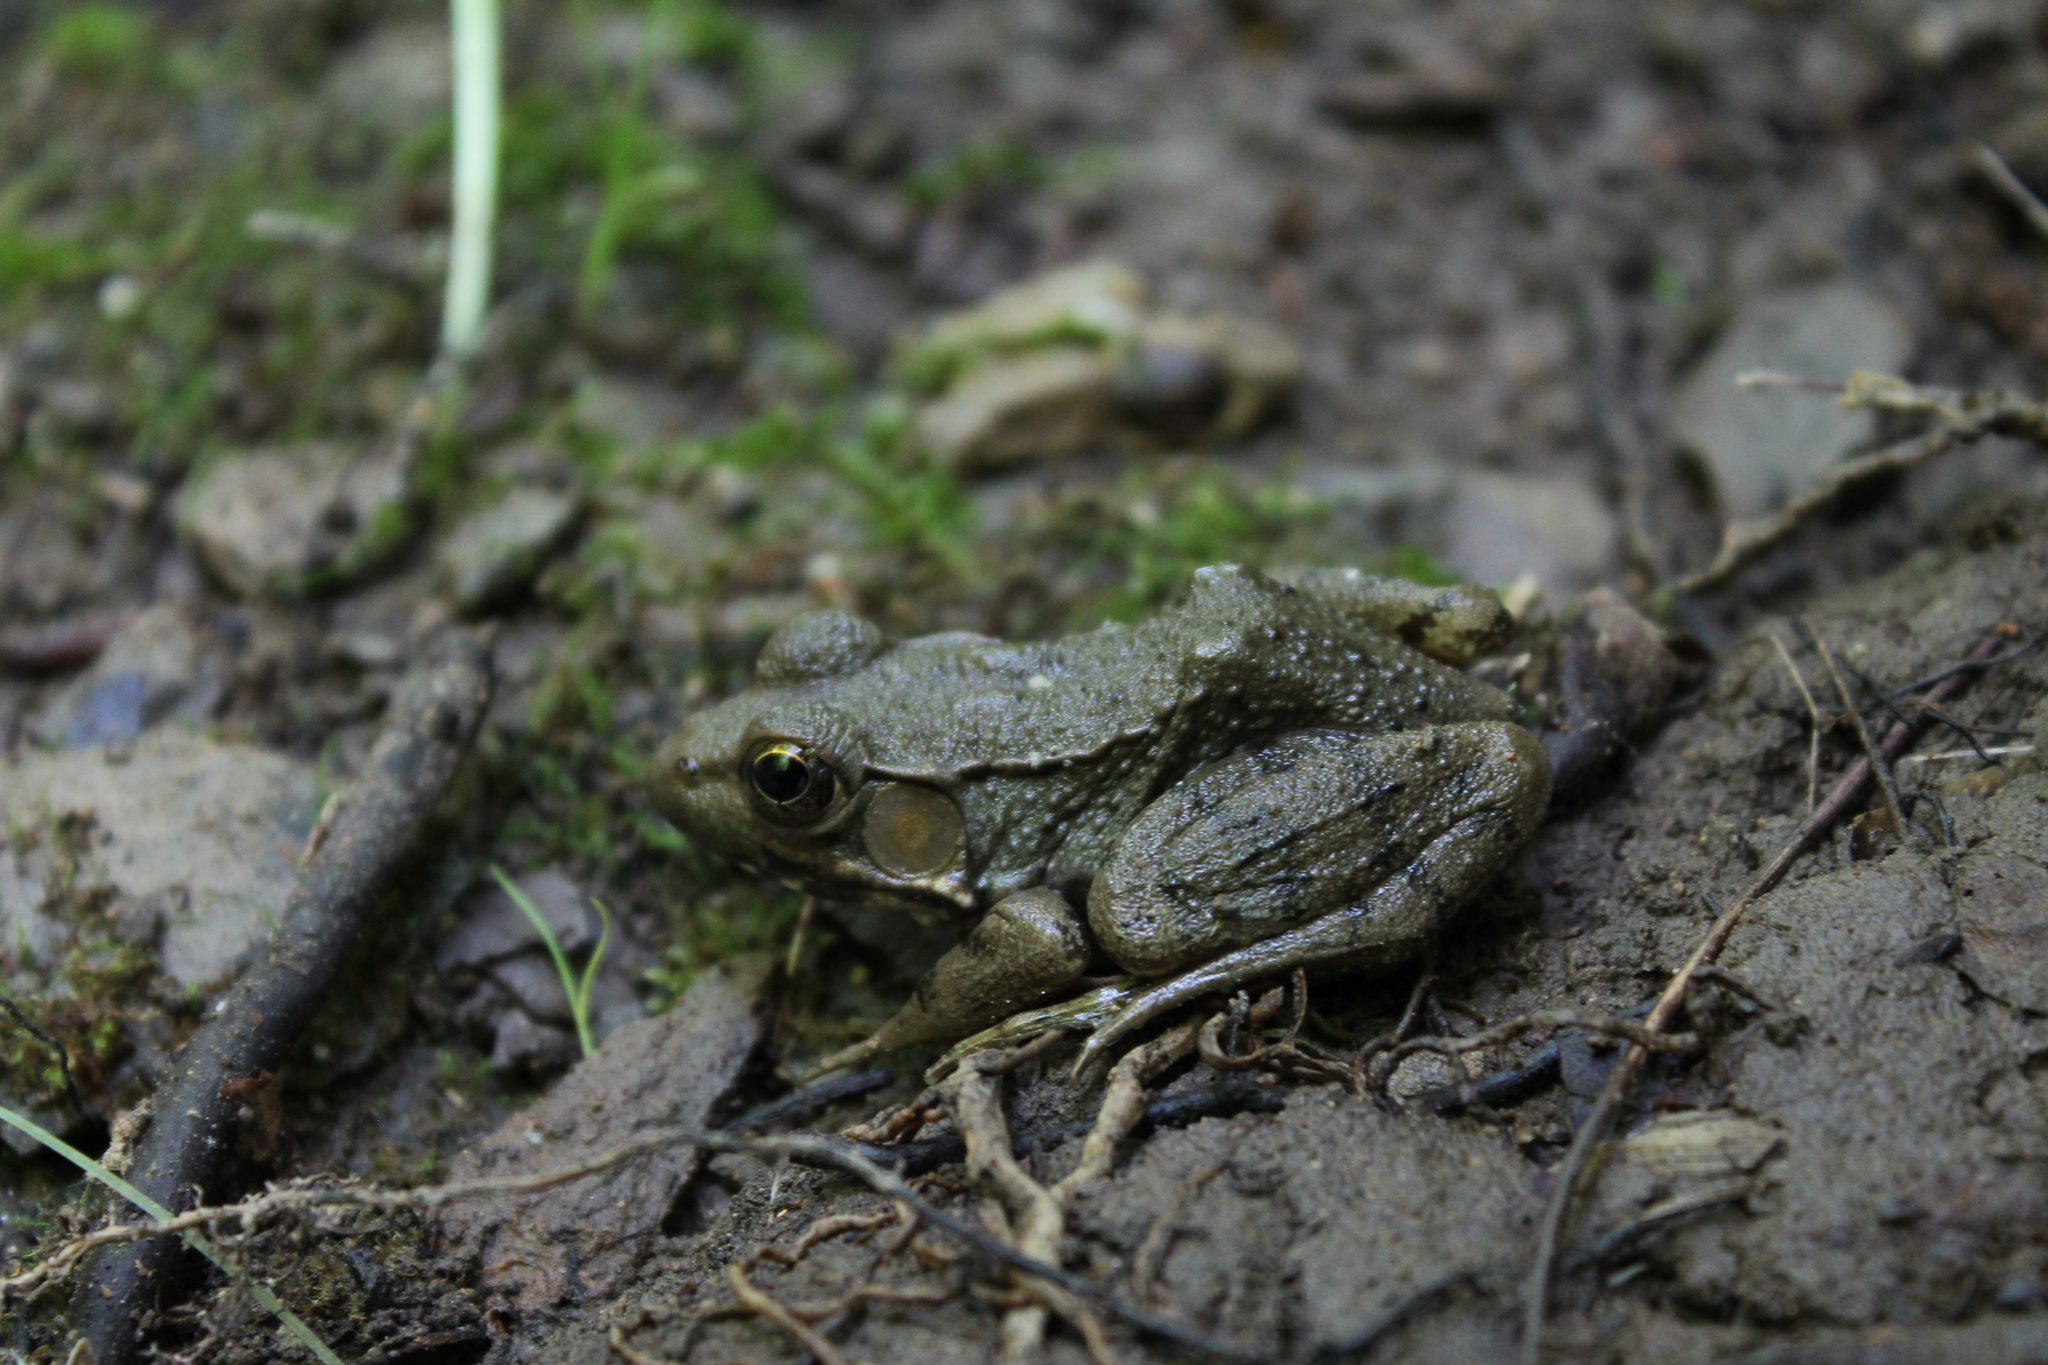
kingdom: Animalia
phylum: Chordata
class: Amphibia
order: Anura
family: Ranidae
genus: Lithobates
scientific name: Lithobates clamitans
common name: Green frog
